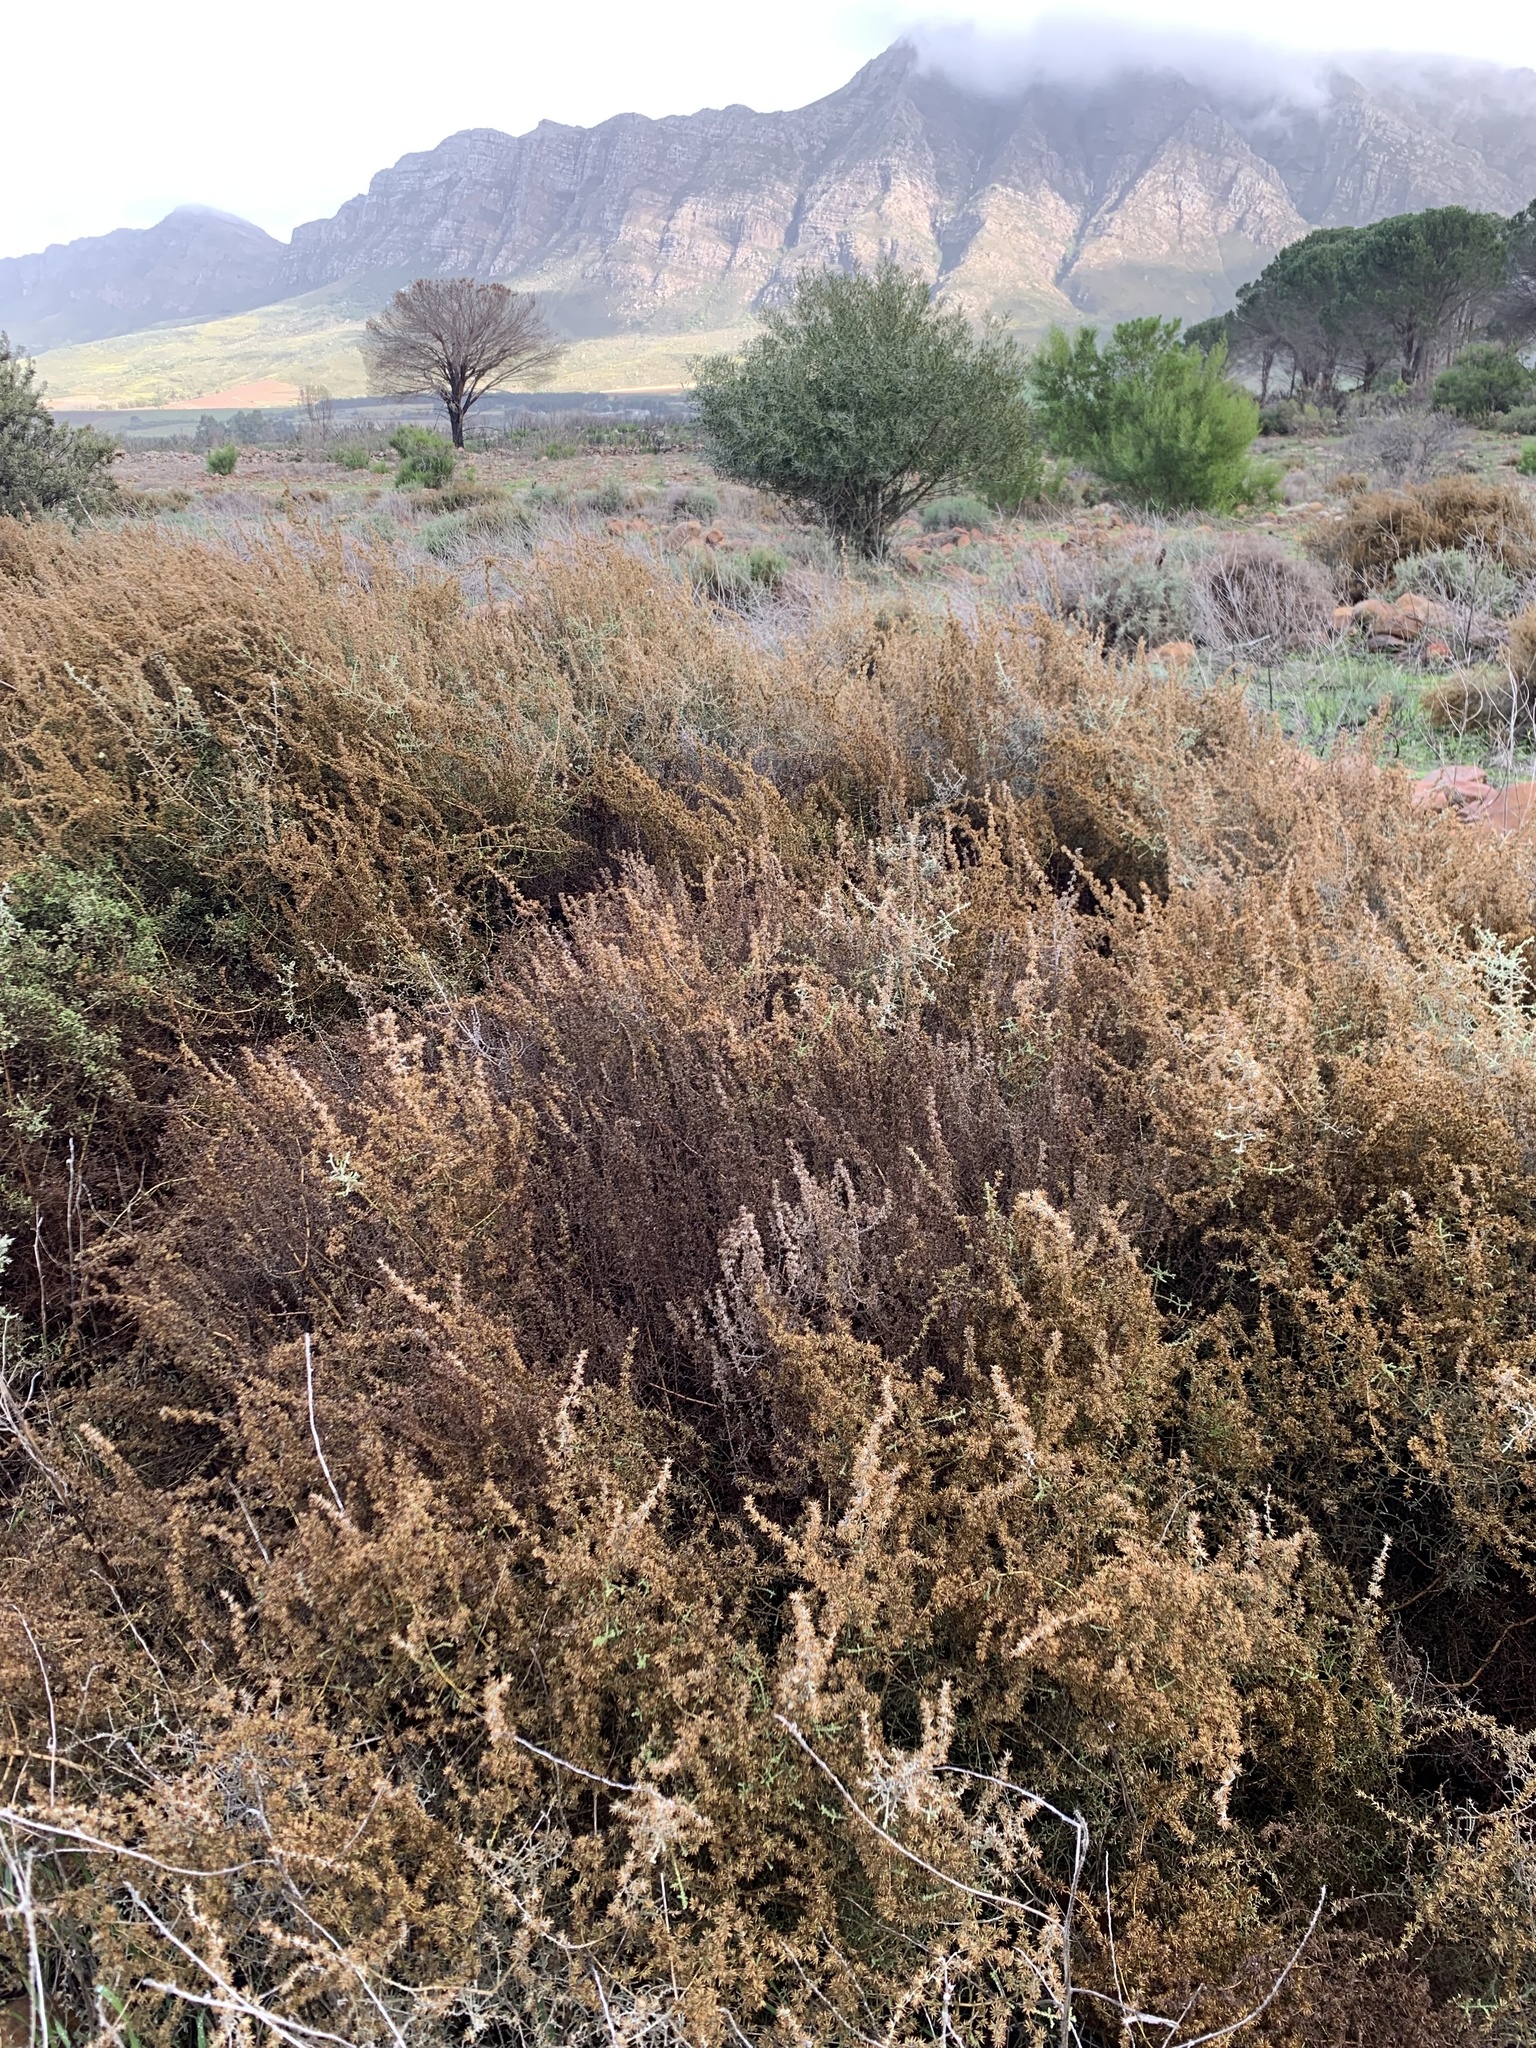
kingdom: Plantae
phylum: Tracheophyta
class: Magnoliopsida
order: Asterales
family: Asteraceae
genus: Seriphium
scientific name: Seriphium plumosum
